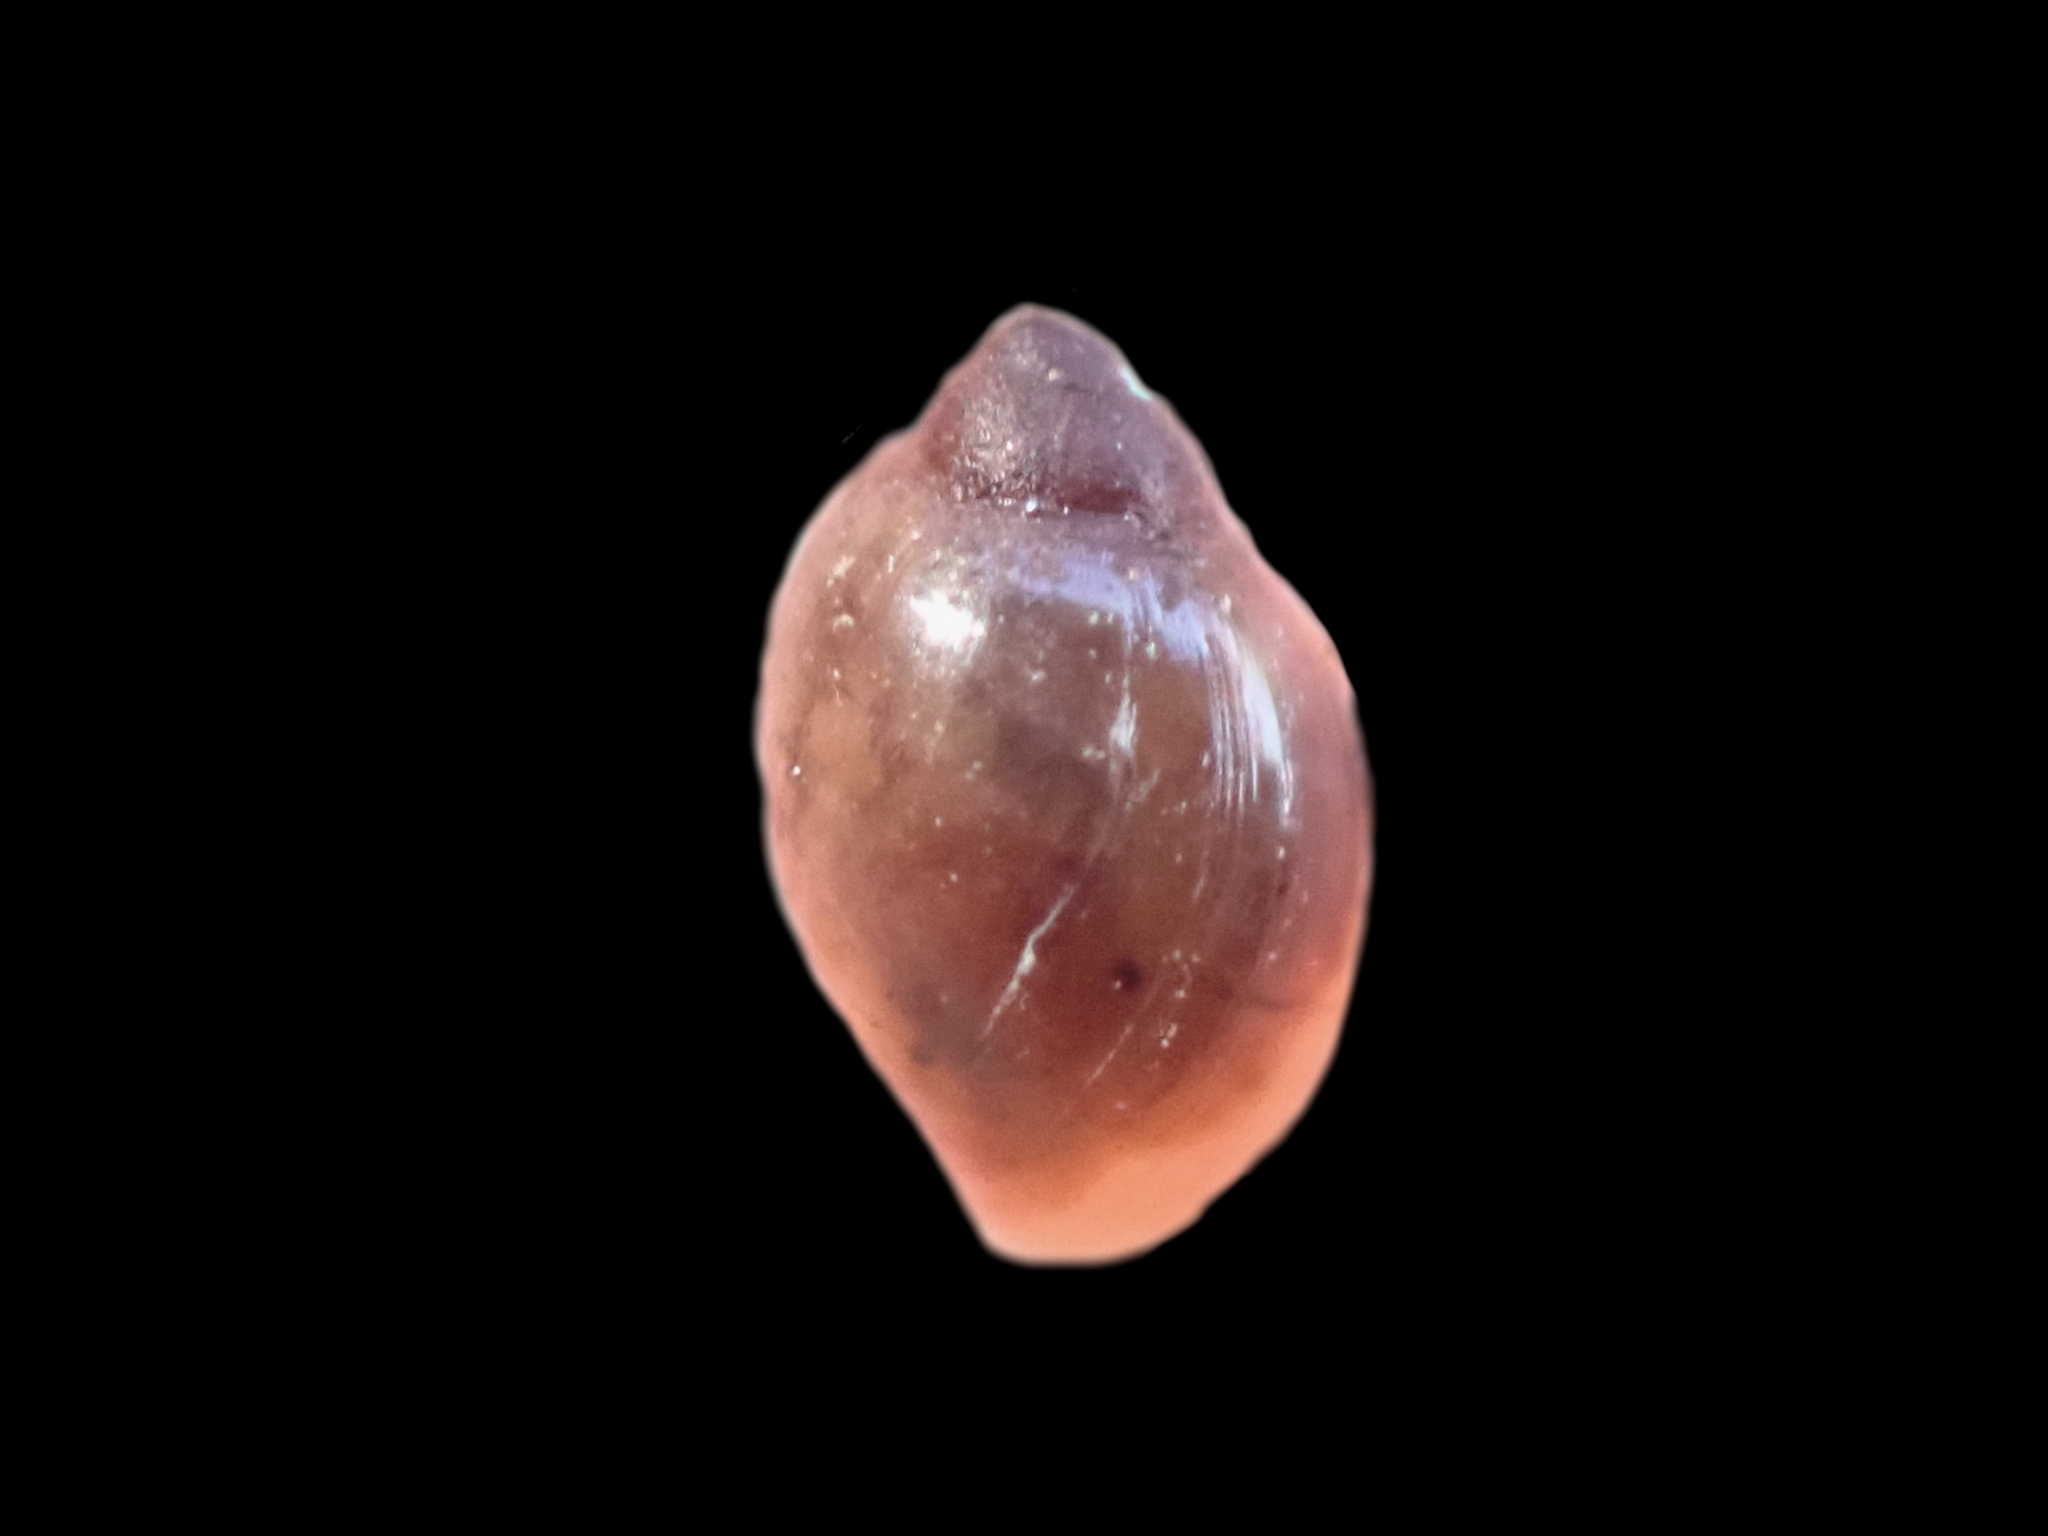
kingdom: Animalia
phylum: Mollusca
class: Gastropoda
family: Physidae
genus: Physella
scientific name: Physella acuta
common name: European physa
